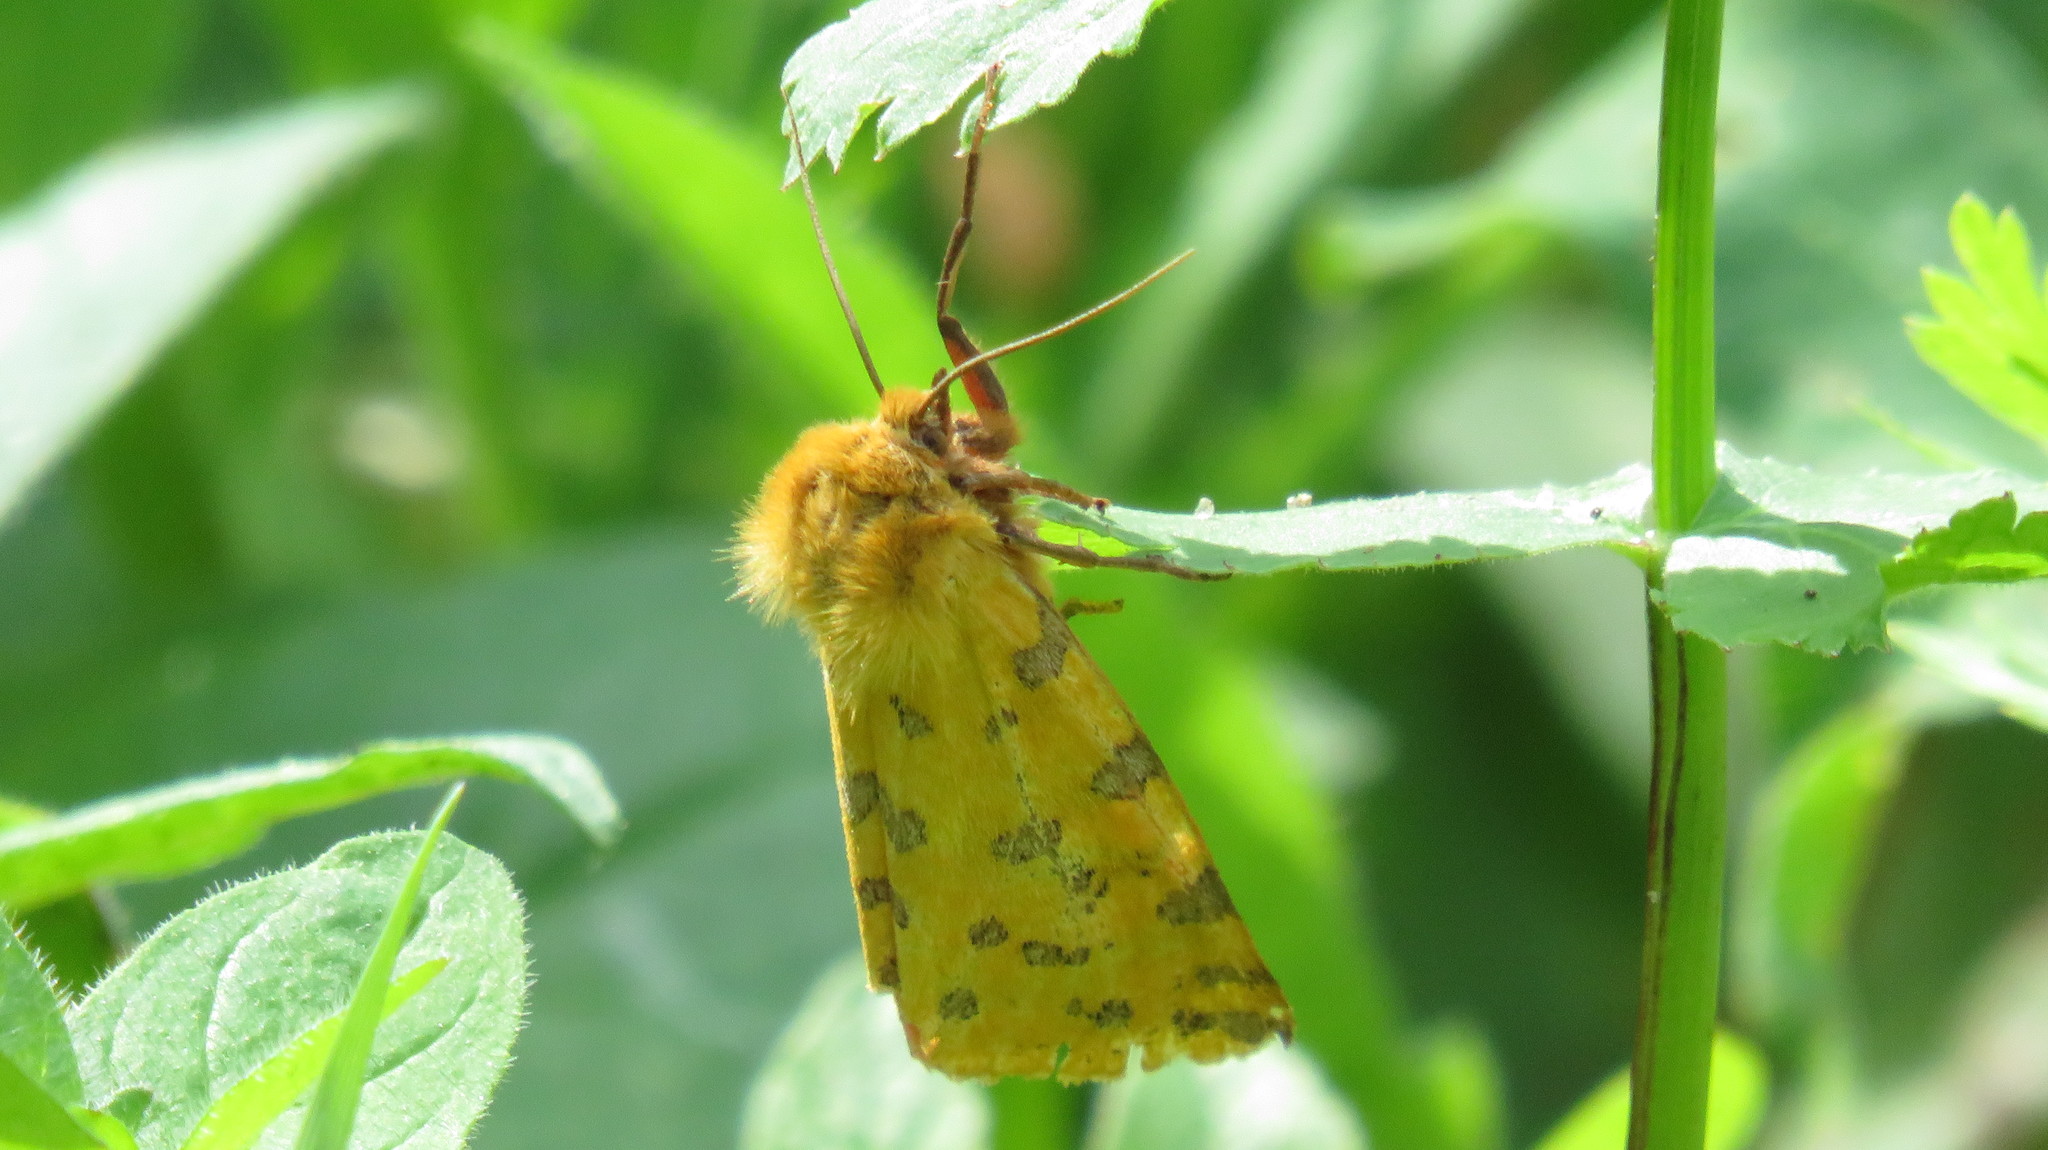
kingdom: Animalia
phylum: Arthropoda
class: Insecta
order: Lepidoptera
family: Erebidae
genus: Rhyparia
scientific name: Rhyparia purpurata
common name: Purple tiger
